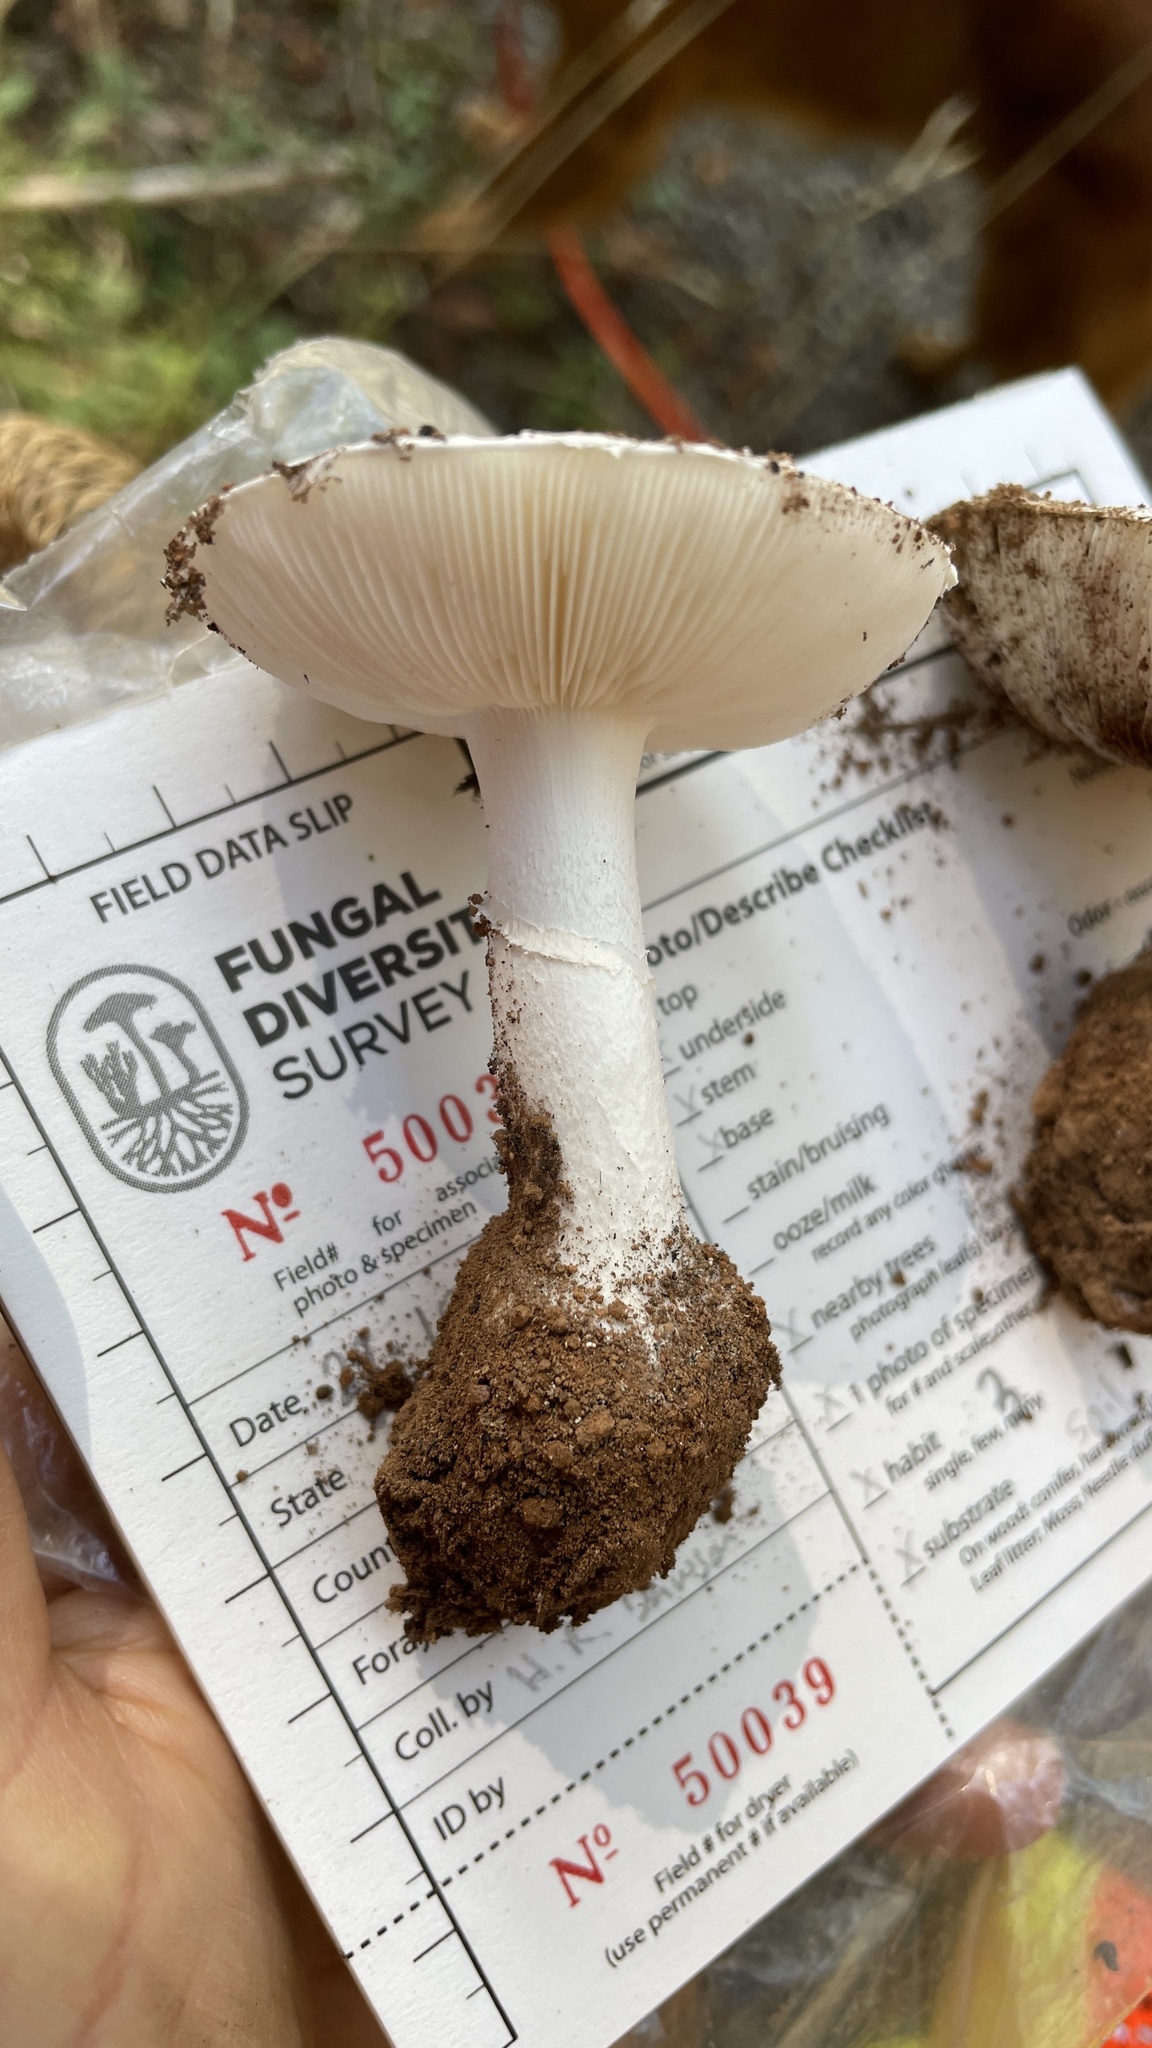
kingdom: Fungi
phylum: Basidiomycota
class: Agaricomycetes
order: Agaricales
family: Amanitaceae
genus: Amanita
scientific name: Amanita silvicola
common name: Woodland amanita
